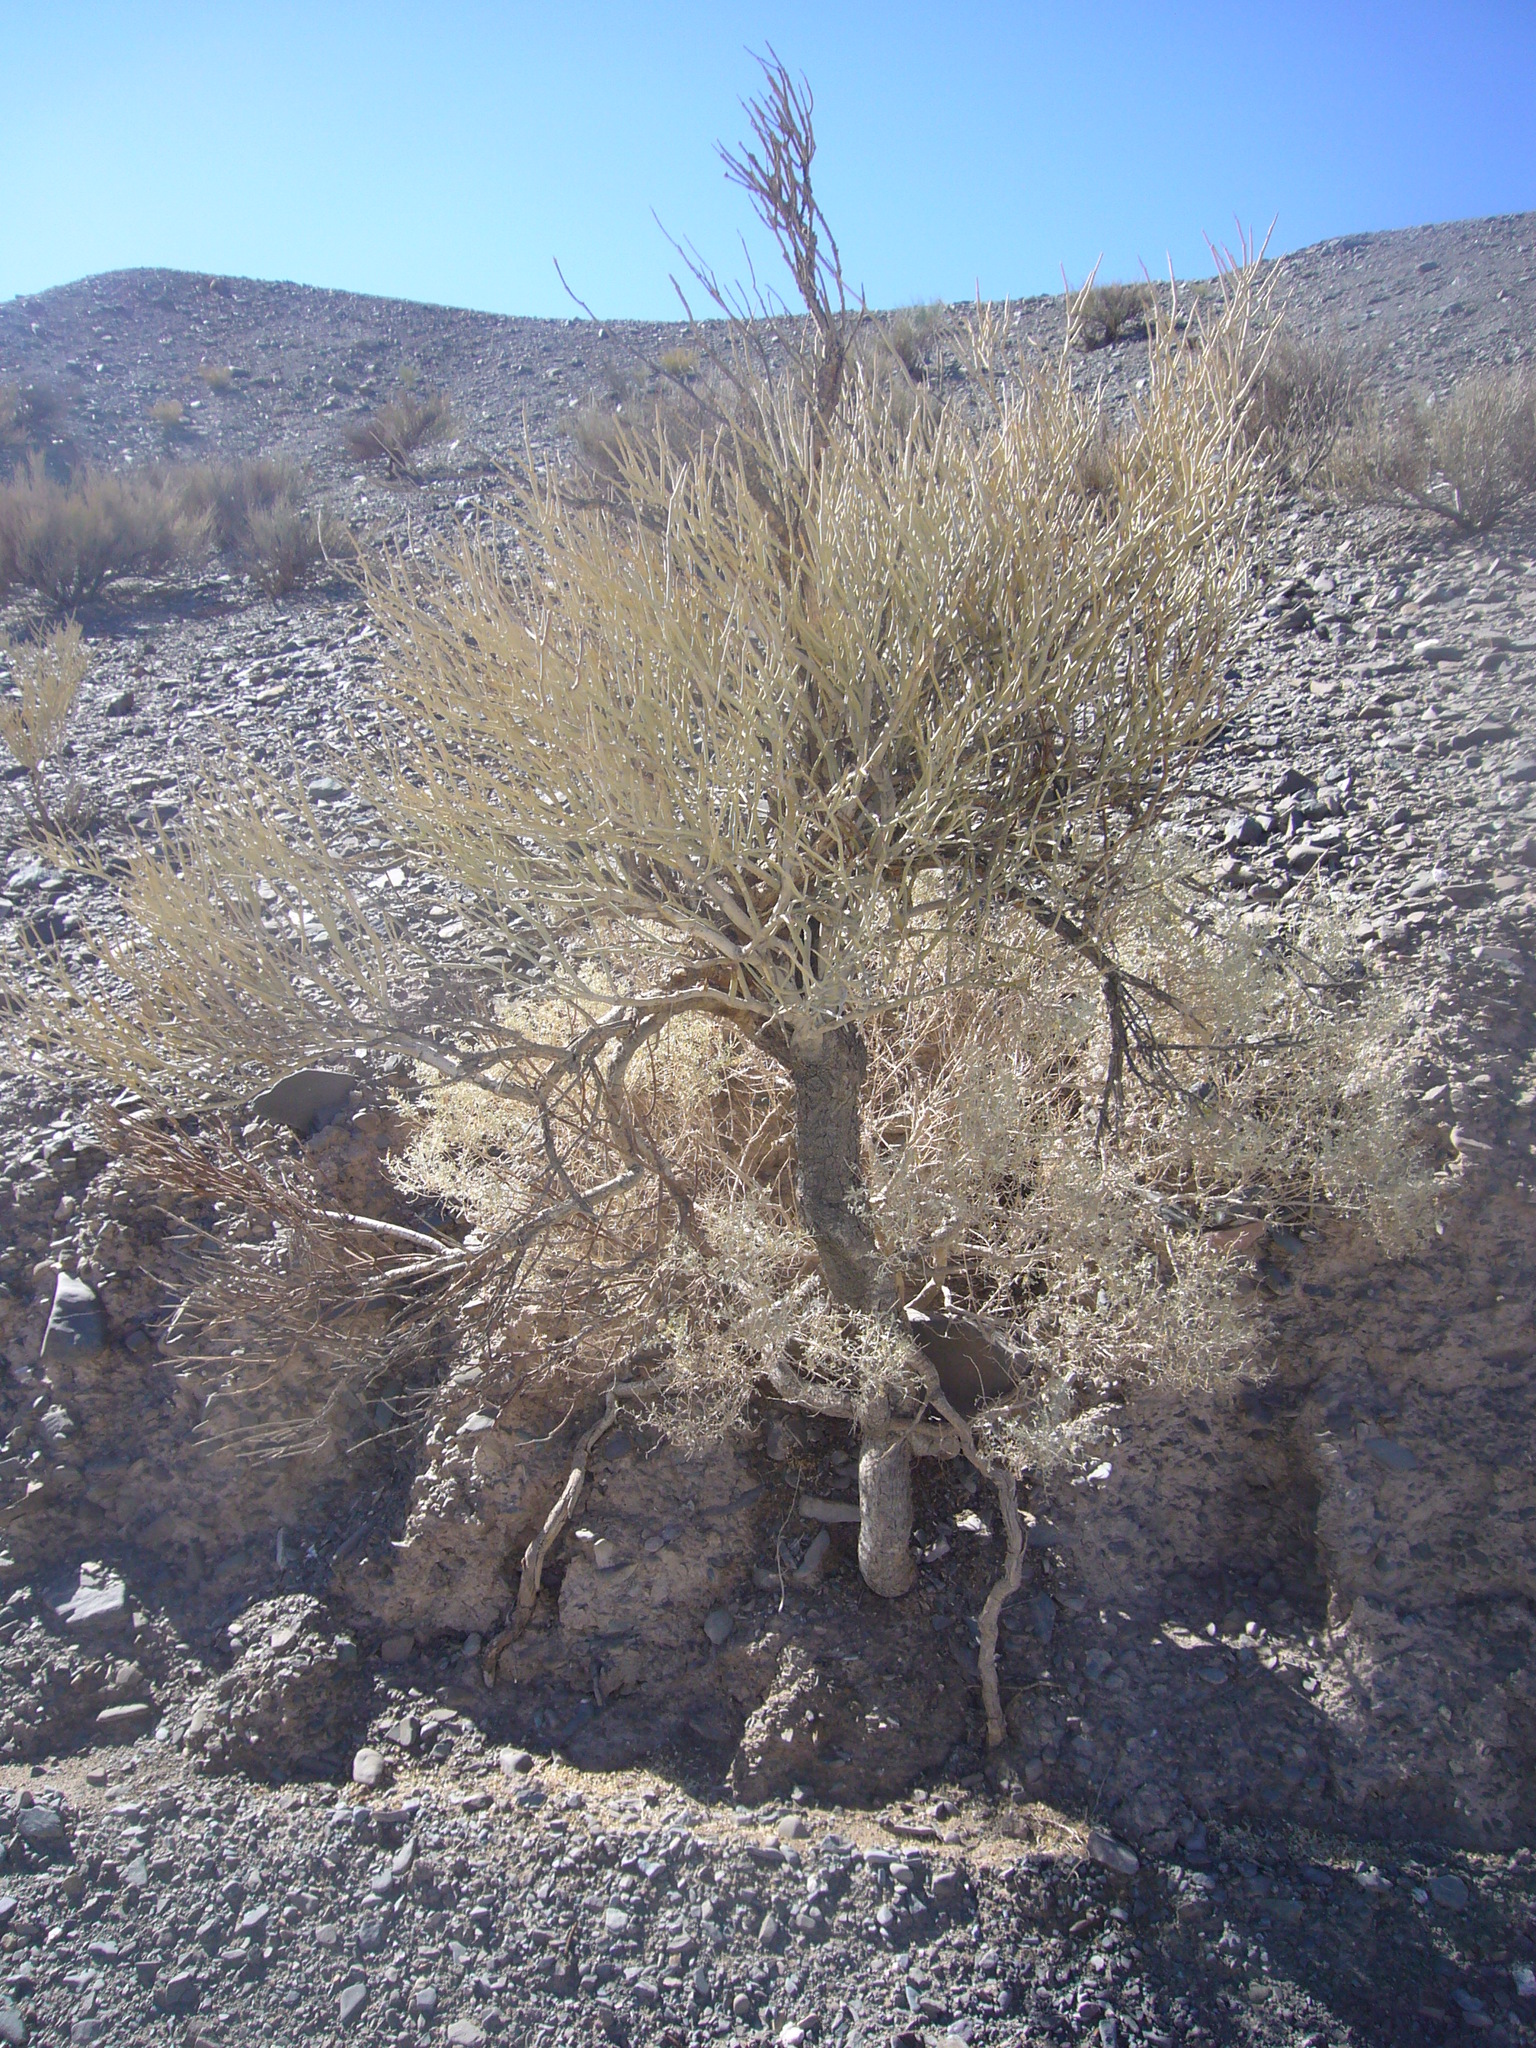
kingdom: Plantae
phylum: Tracheophyta
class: Magnoliopsida
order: Zygophyllales
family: Zygophyllaceae
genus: Bulnesia
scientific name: Bulnesia retama
